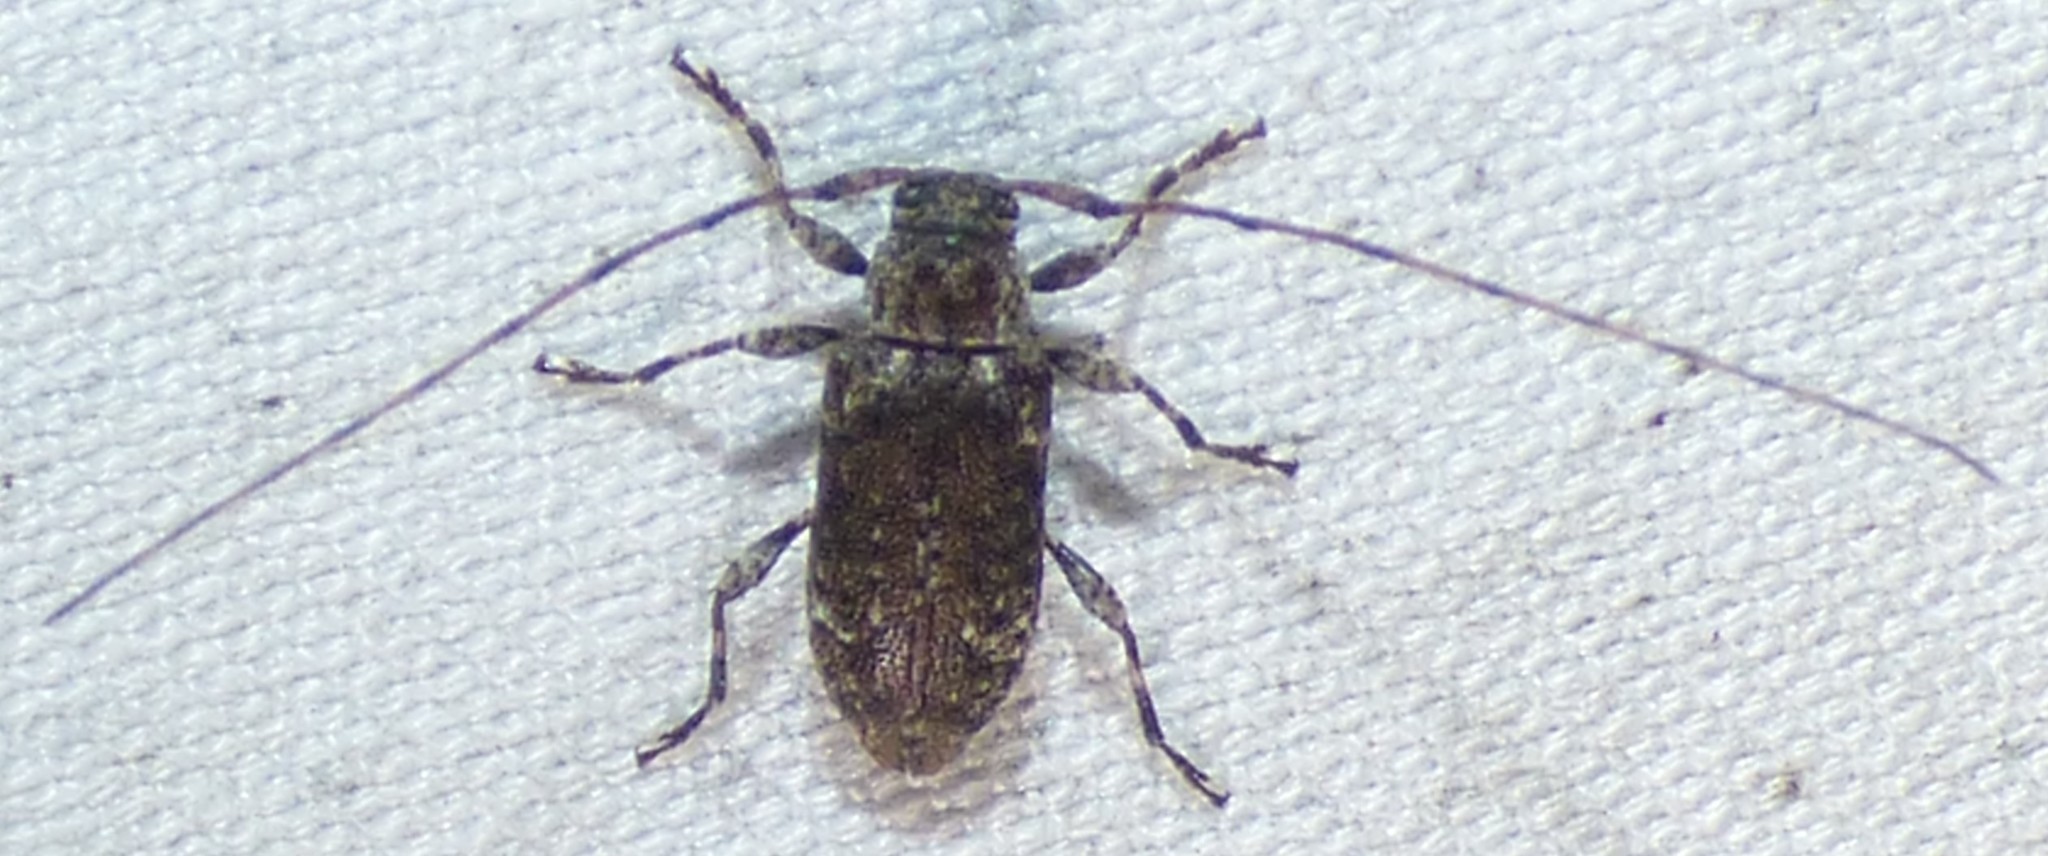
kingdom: Animalia
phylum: Arthropoda
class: Insecta
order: Coleoptera
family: Cerambycidae
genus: Sternidius
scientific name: Sternidius punctatus
